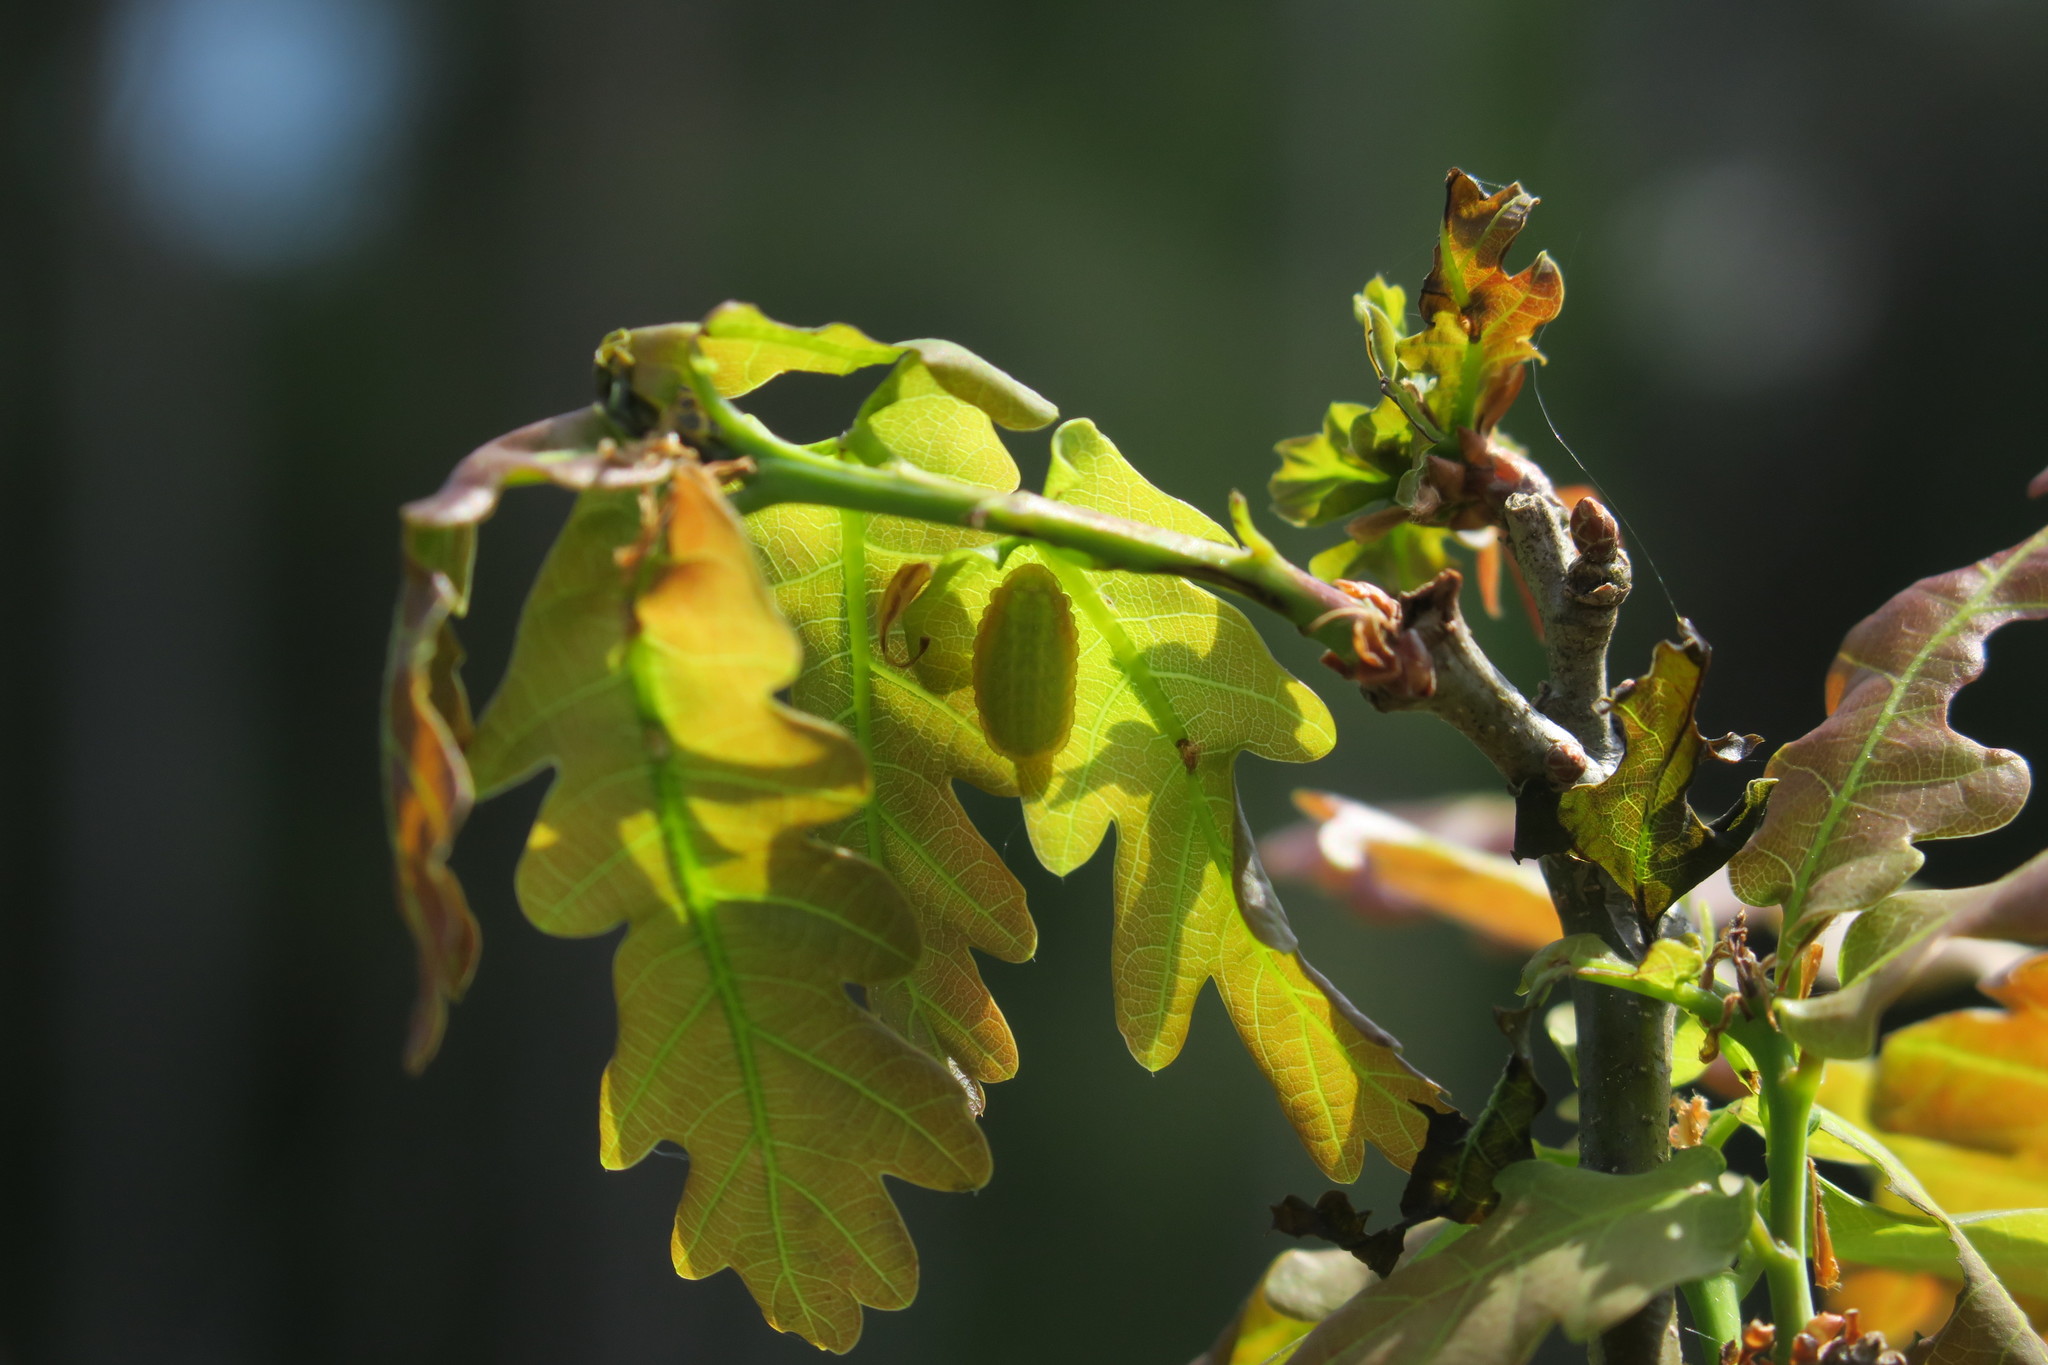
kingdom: Animalia
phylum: Arthropoda
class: Insecta
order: Lepidoptera
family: Lycaenidae
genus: Nordmannia
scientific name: Nordmannia ilicis
